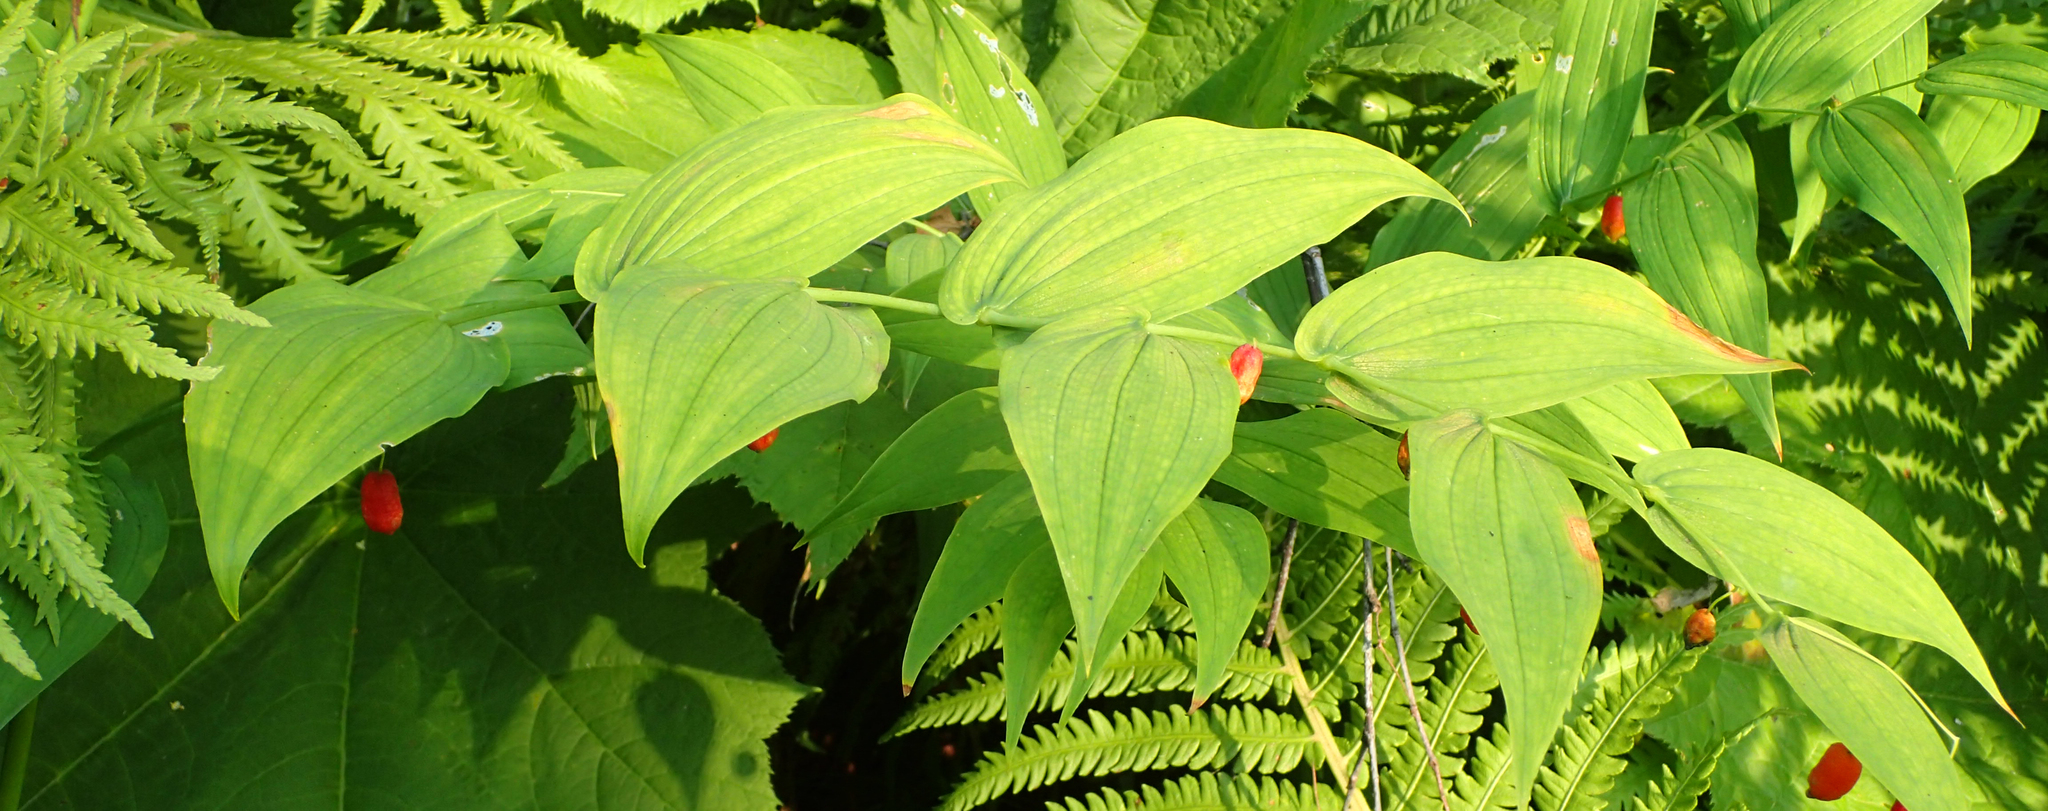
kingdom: Plantae
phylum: Tracheophyta
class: Liliopsida
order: Liliales
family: Liliaceae
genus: Streptopus
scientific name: Streptopus amplexifolius
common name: Clasp twisted stalk
